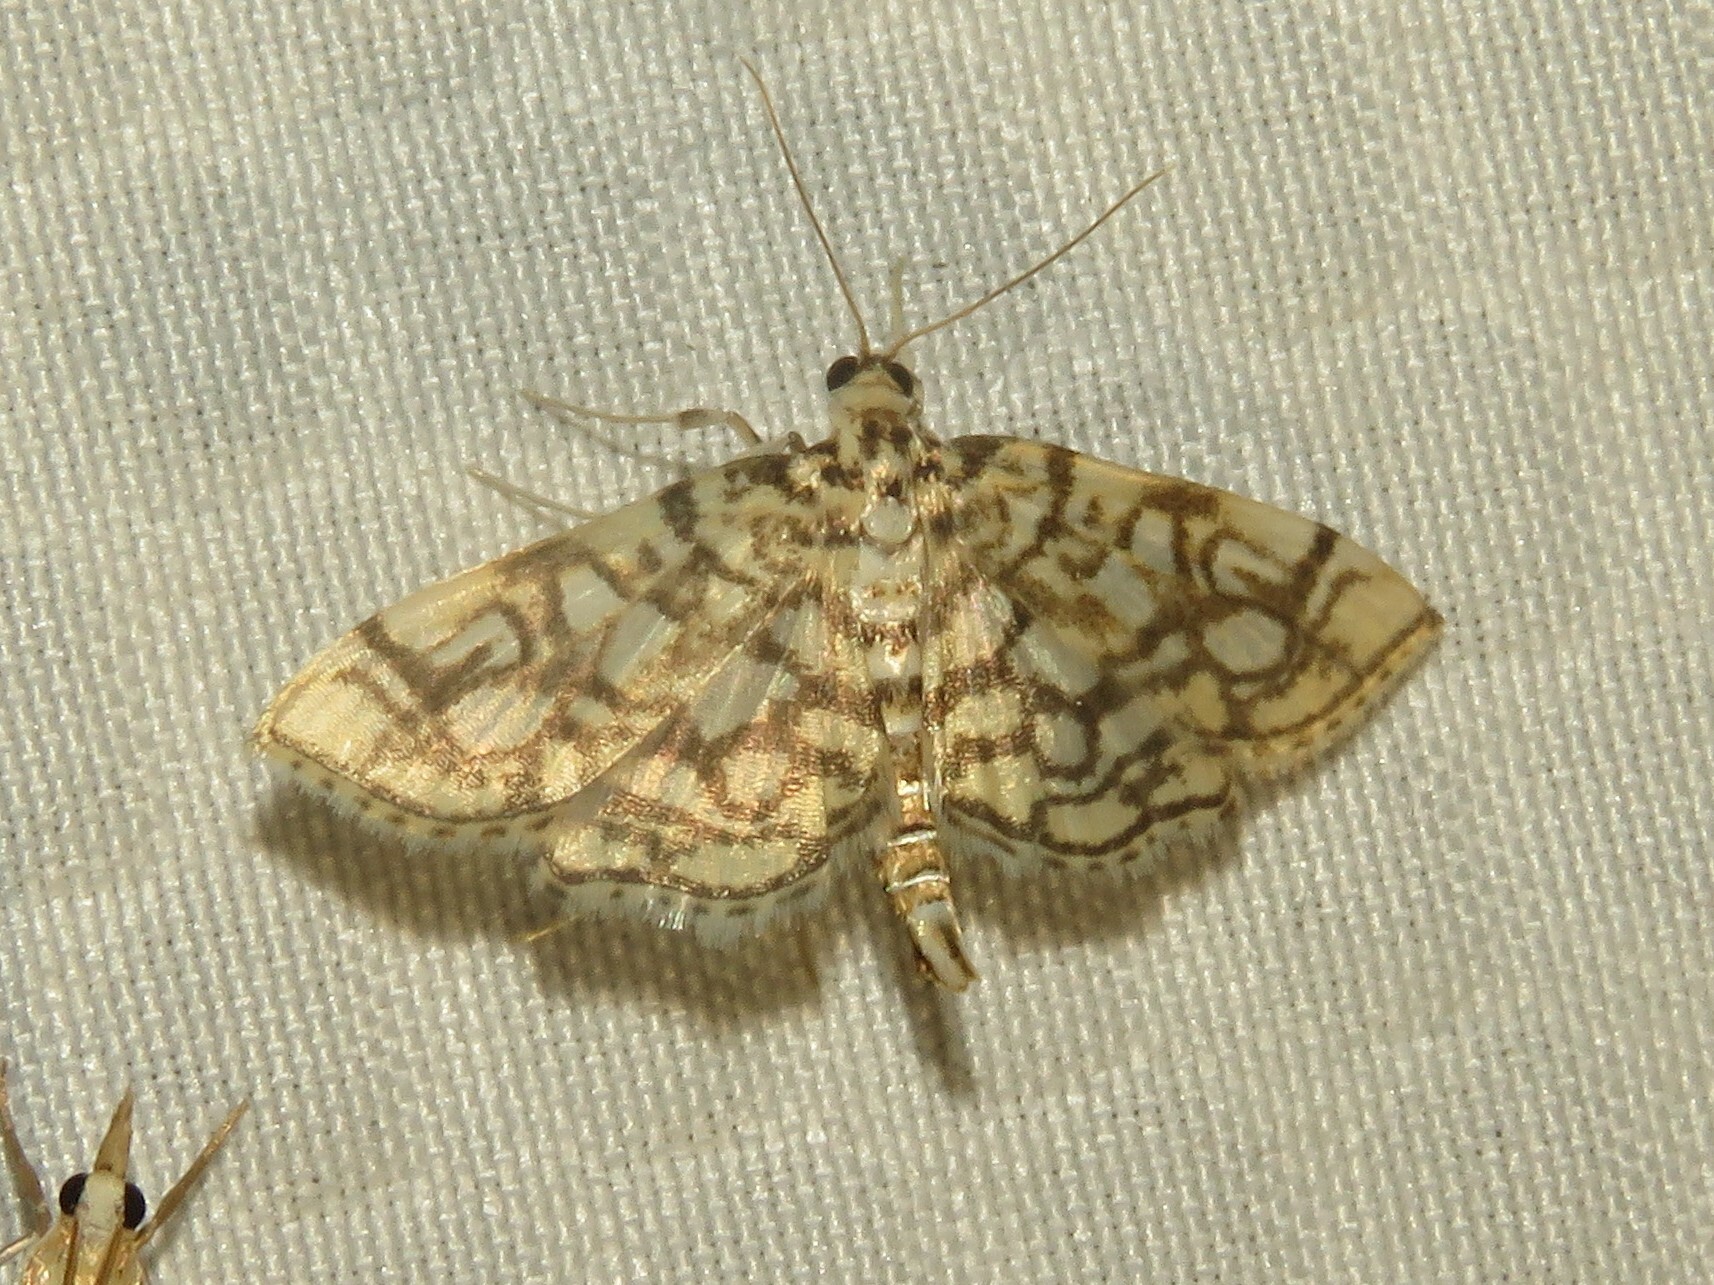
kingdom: Animalia
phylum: Arthropoda
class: Insecta
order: Lepidoptera
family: Crambidae
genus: Lygropia
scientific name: Lygropia rivulalis
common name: Bog lygropia moth
